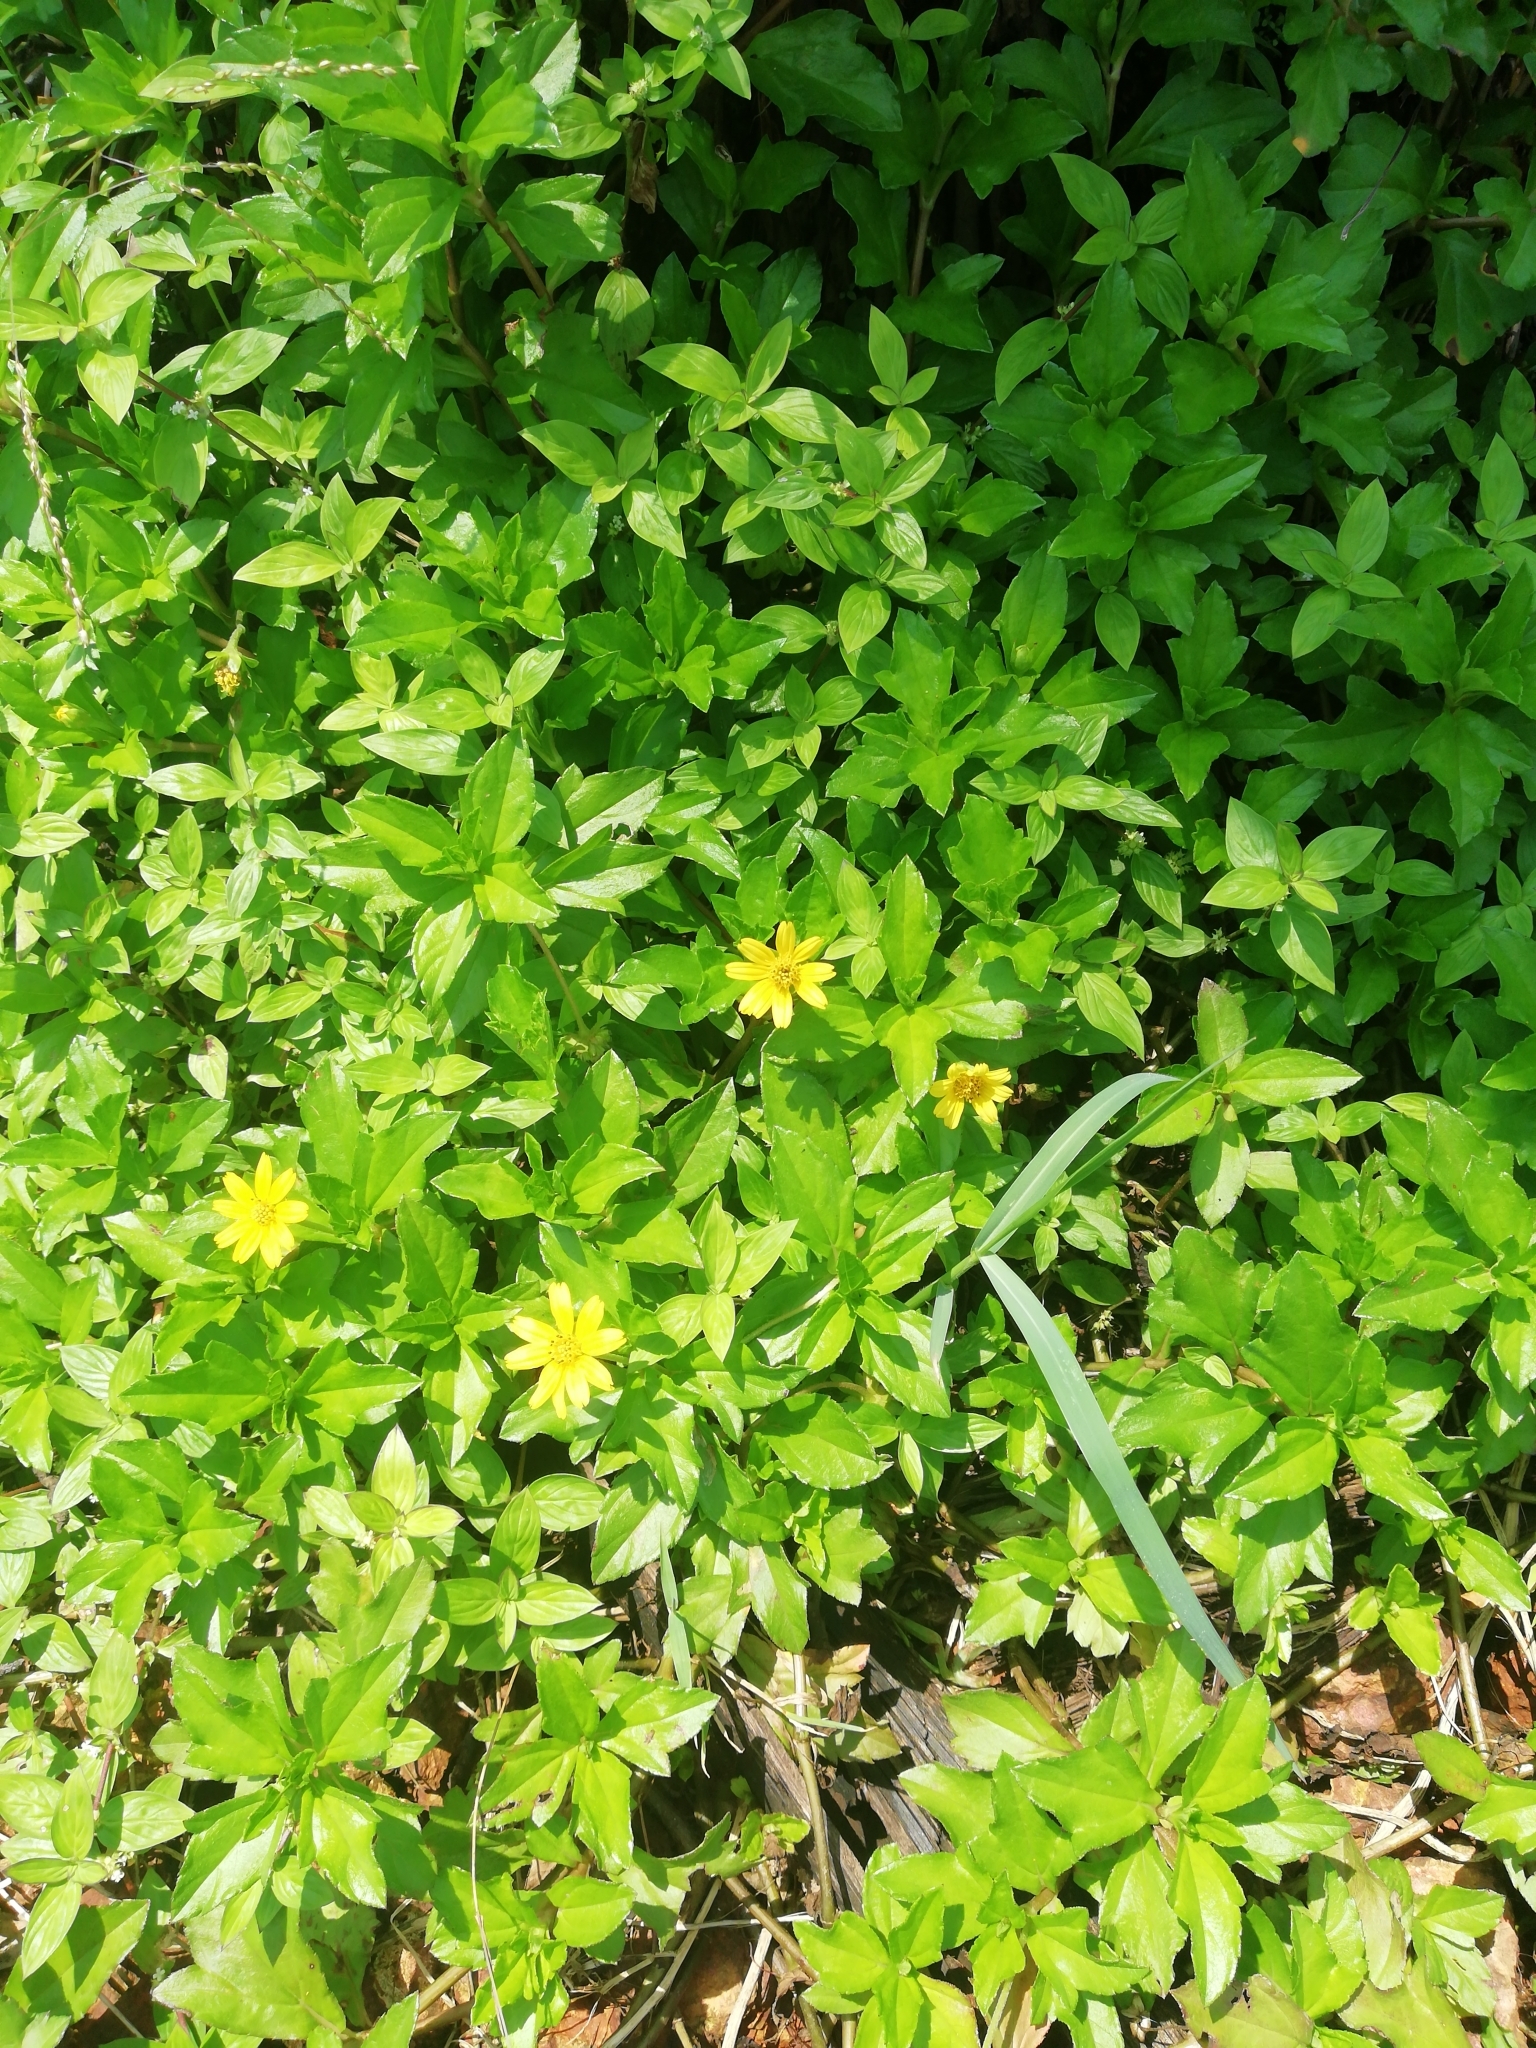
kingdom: Plantae
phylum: Tracheophyta
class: Magnoliopsida
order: Asterales
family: Asteraceae
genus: Melampodium
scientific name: Melampodium divaricatum
